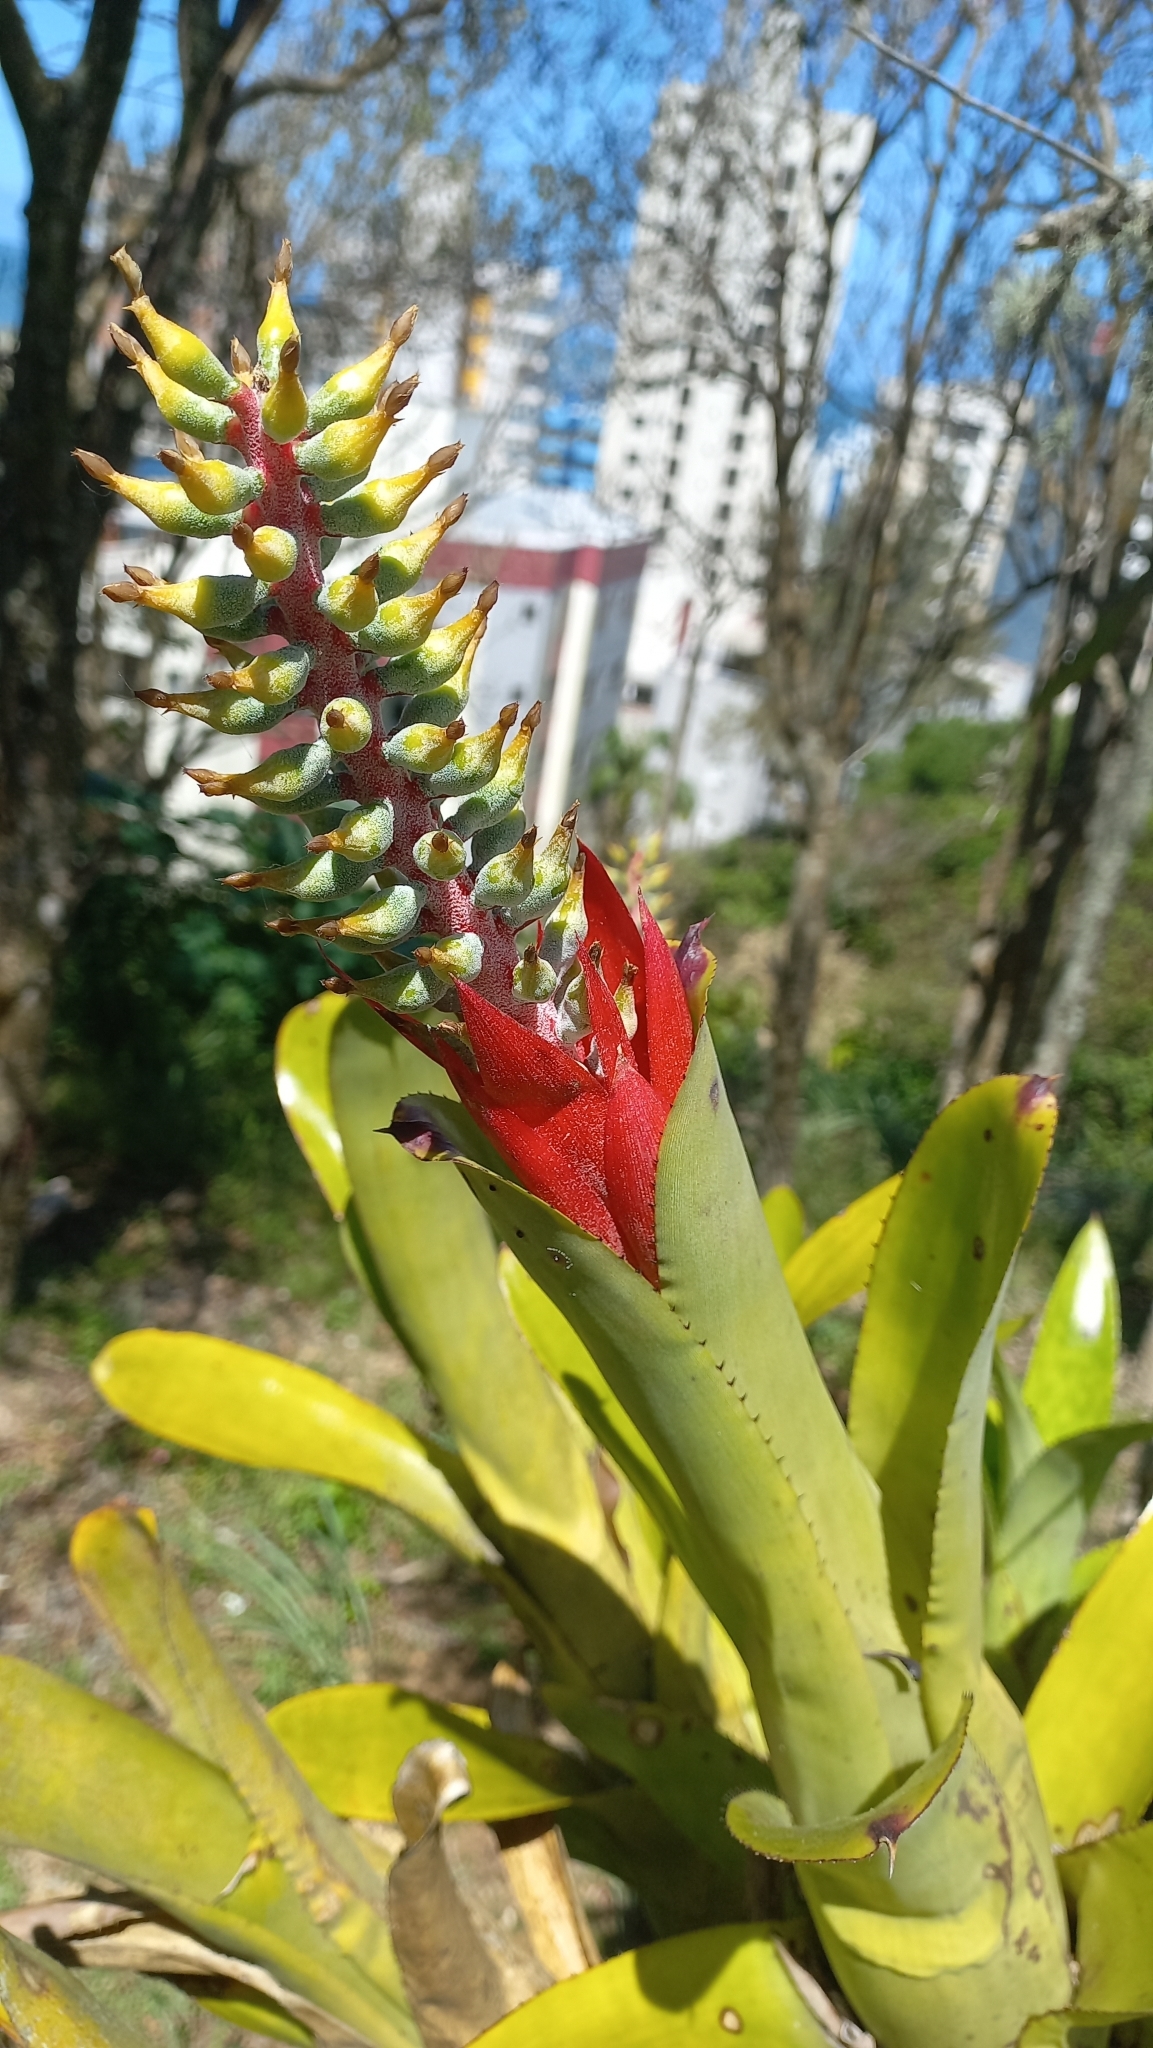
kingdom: Plantae
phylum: Tracheophyta
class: Liliopsida
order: Poales
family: Bromeliaceae
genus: Aechmea
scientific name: Aechmea nudicaulis
